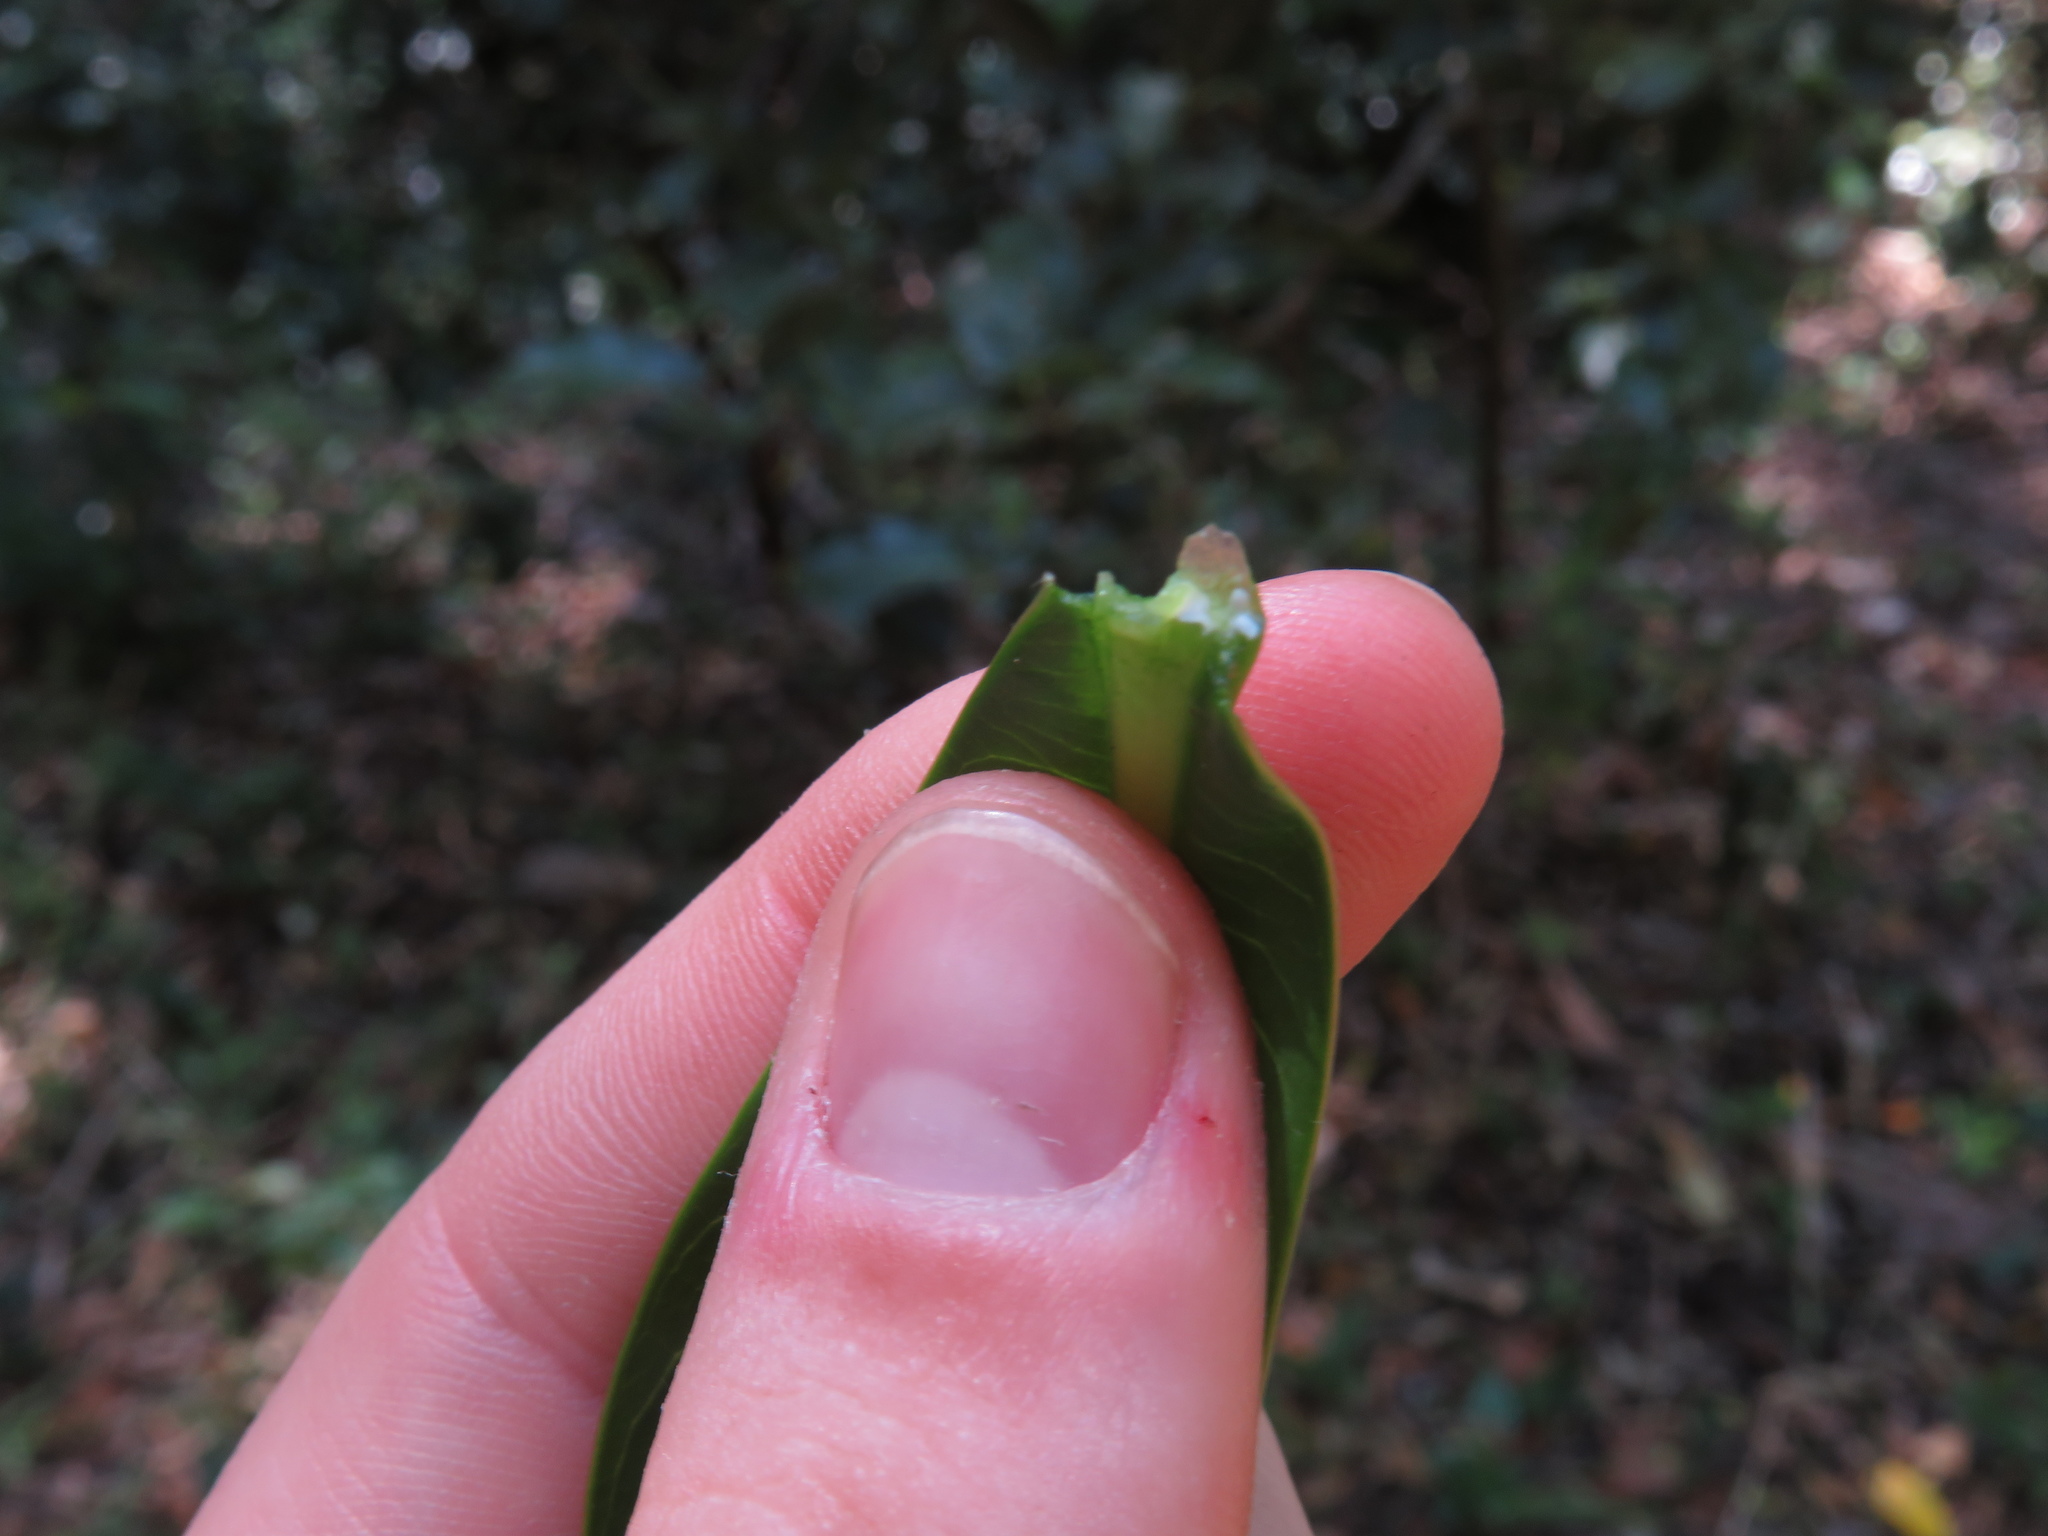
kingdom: Plantae
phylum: Tracheophyta
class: Magnoliopsida
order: Gentianales
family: Apocynaceae
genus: Rauvolfia
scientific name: Rauvolfia caffra
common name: Quininetree
